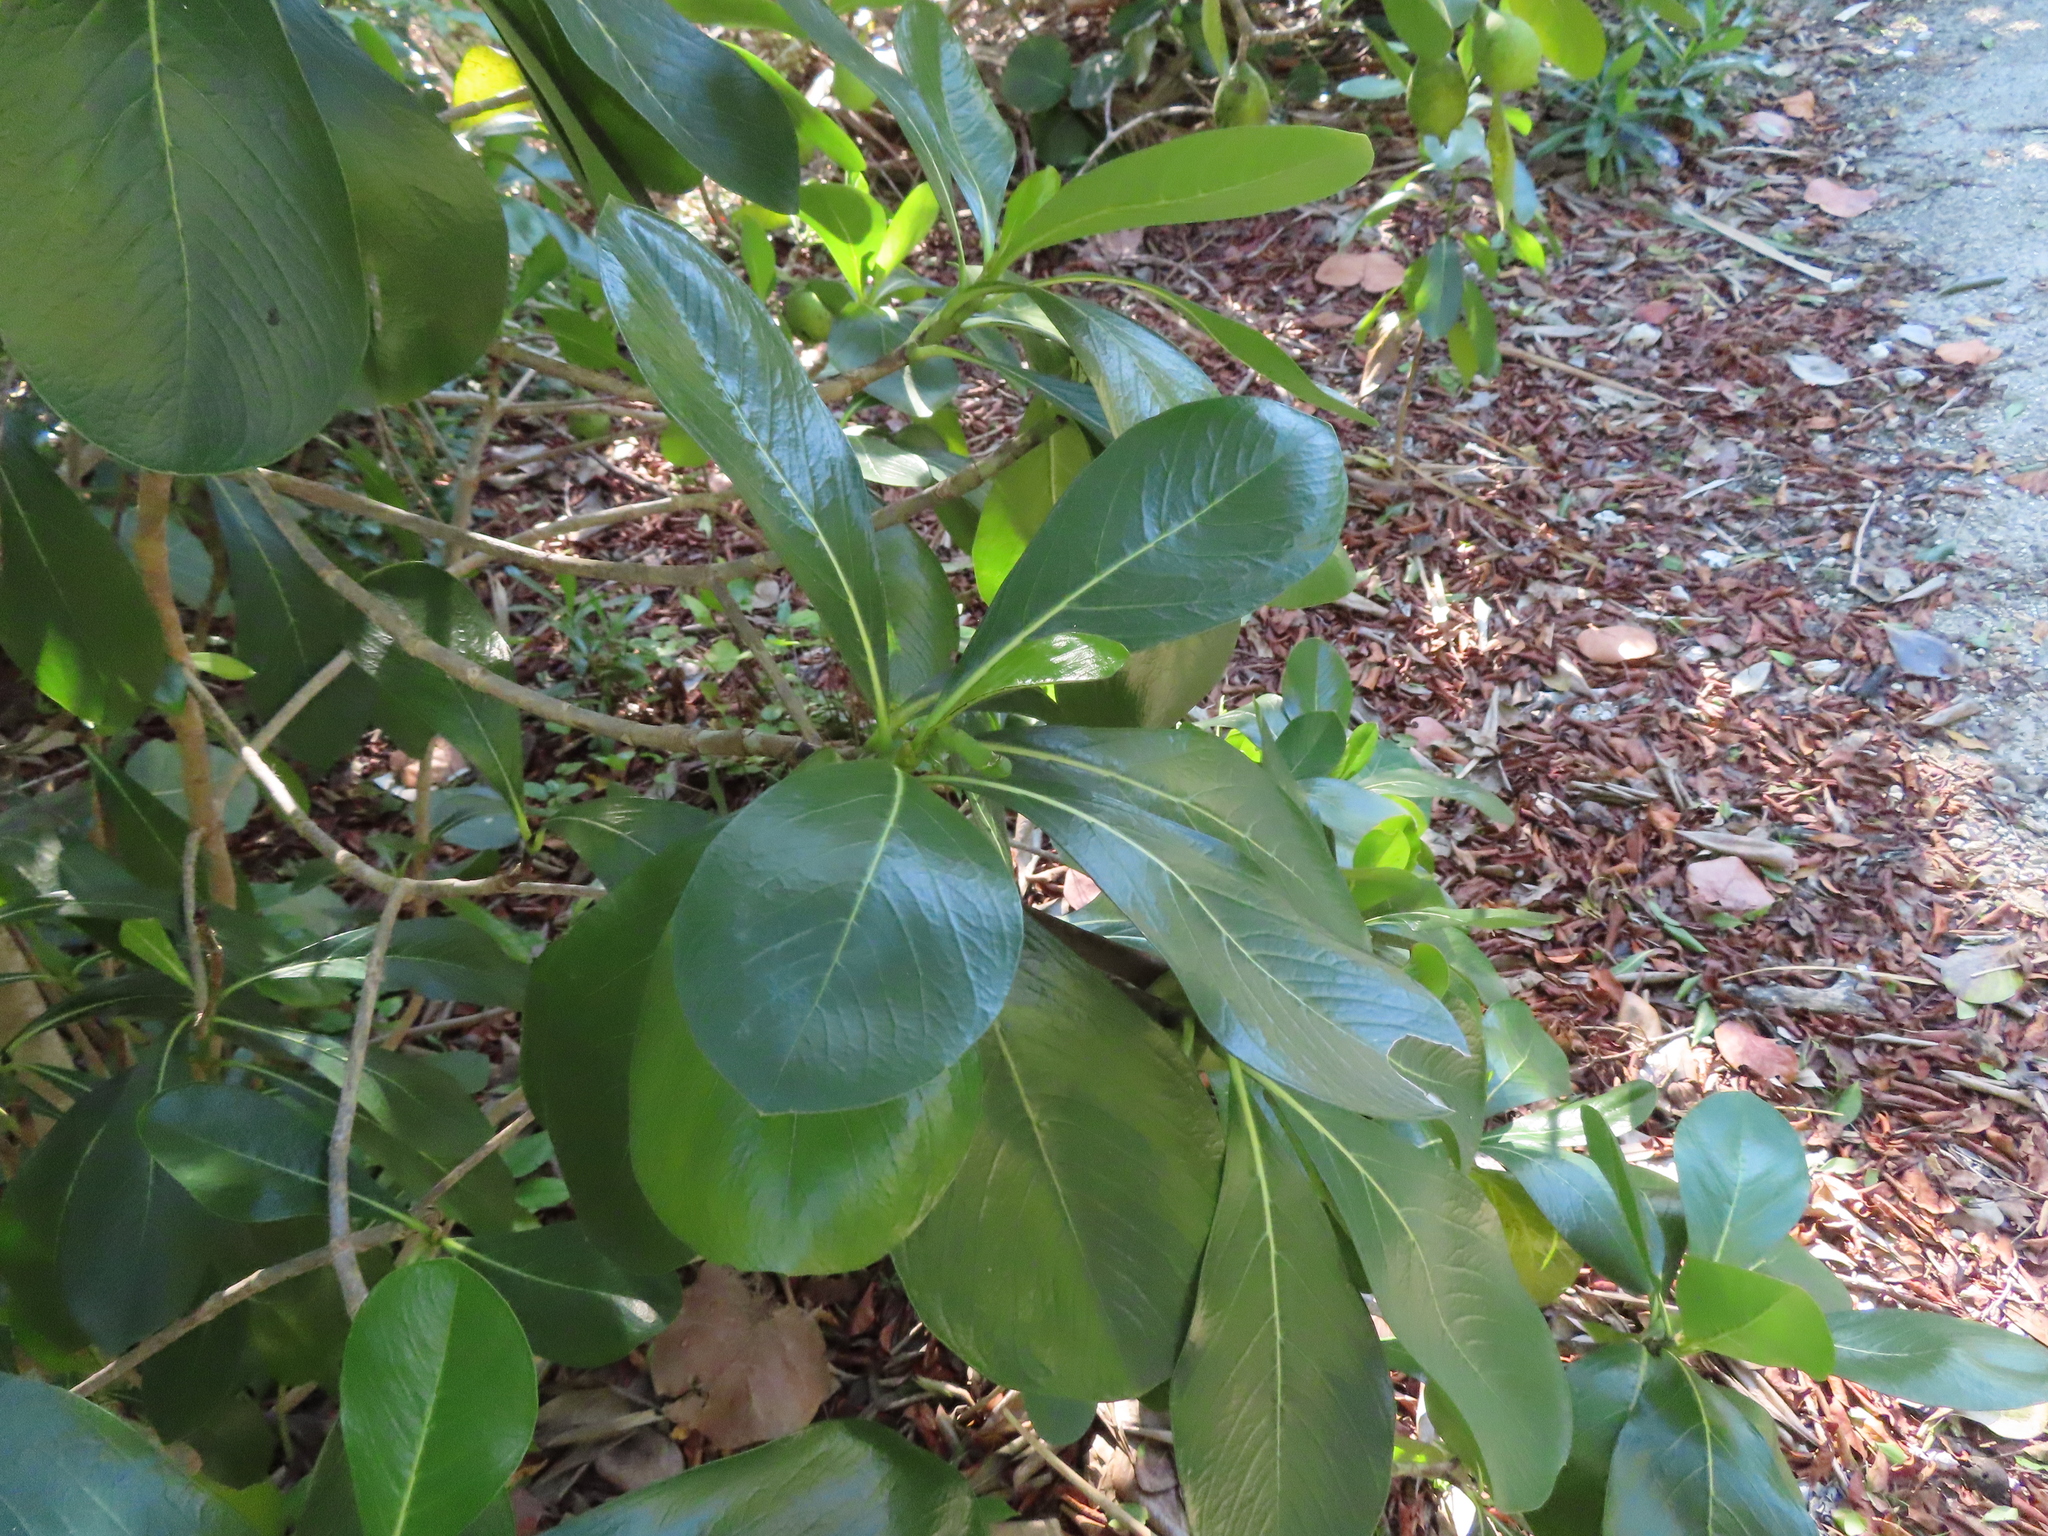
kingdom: Plantae
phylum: Tracheophyta
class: Magnoliopsida
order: Gentianales
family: Rubiaceae
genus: Casasia
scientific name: Casasia clusiifolia
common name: Seven-year apple
